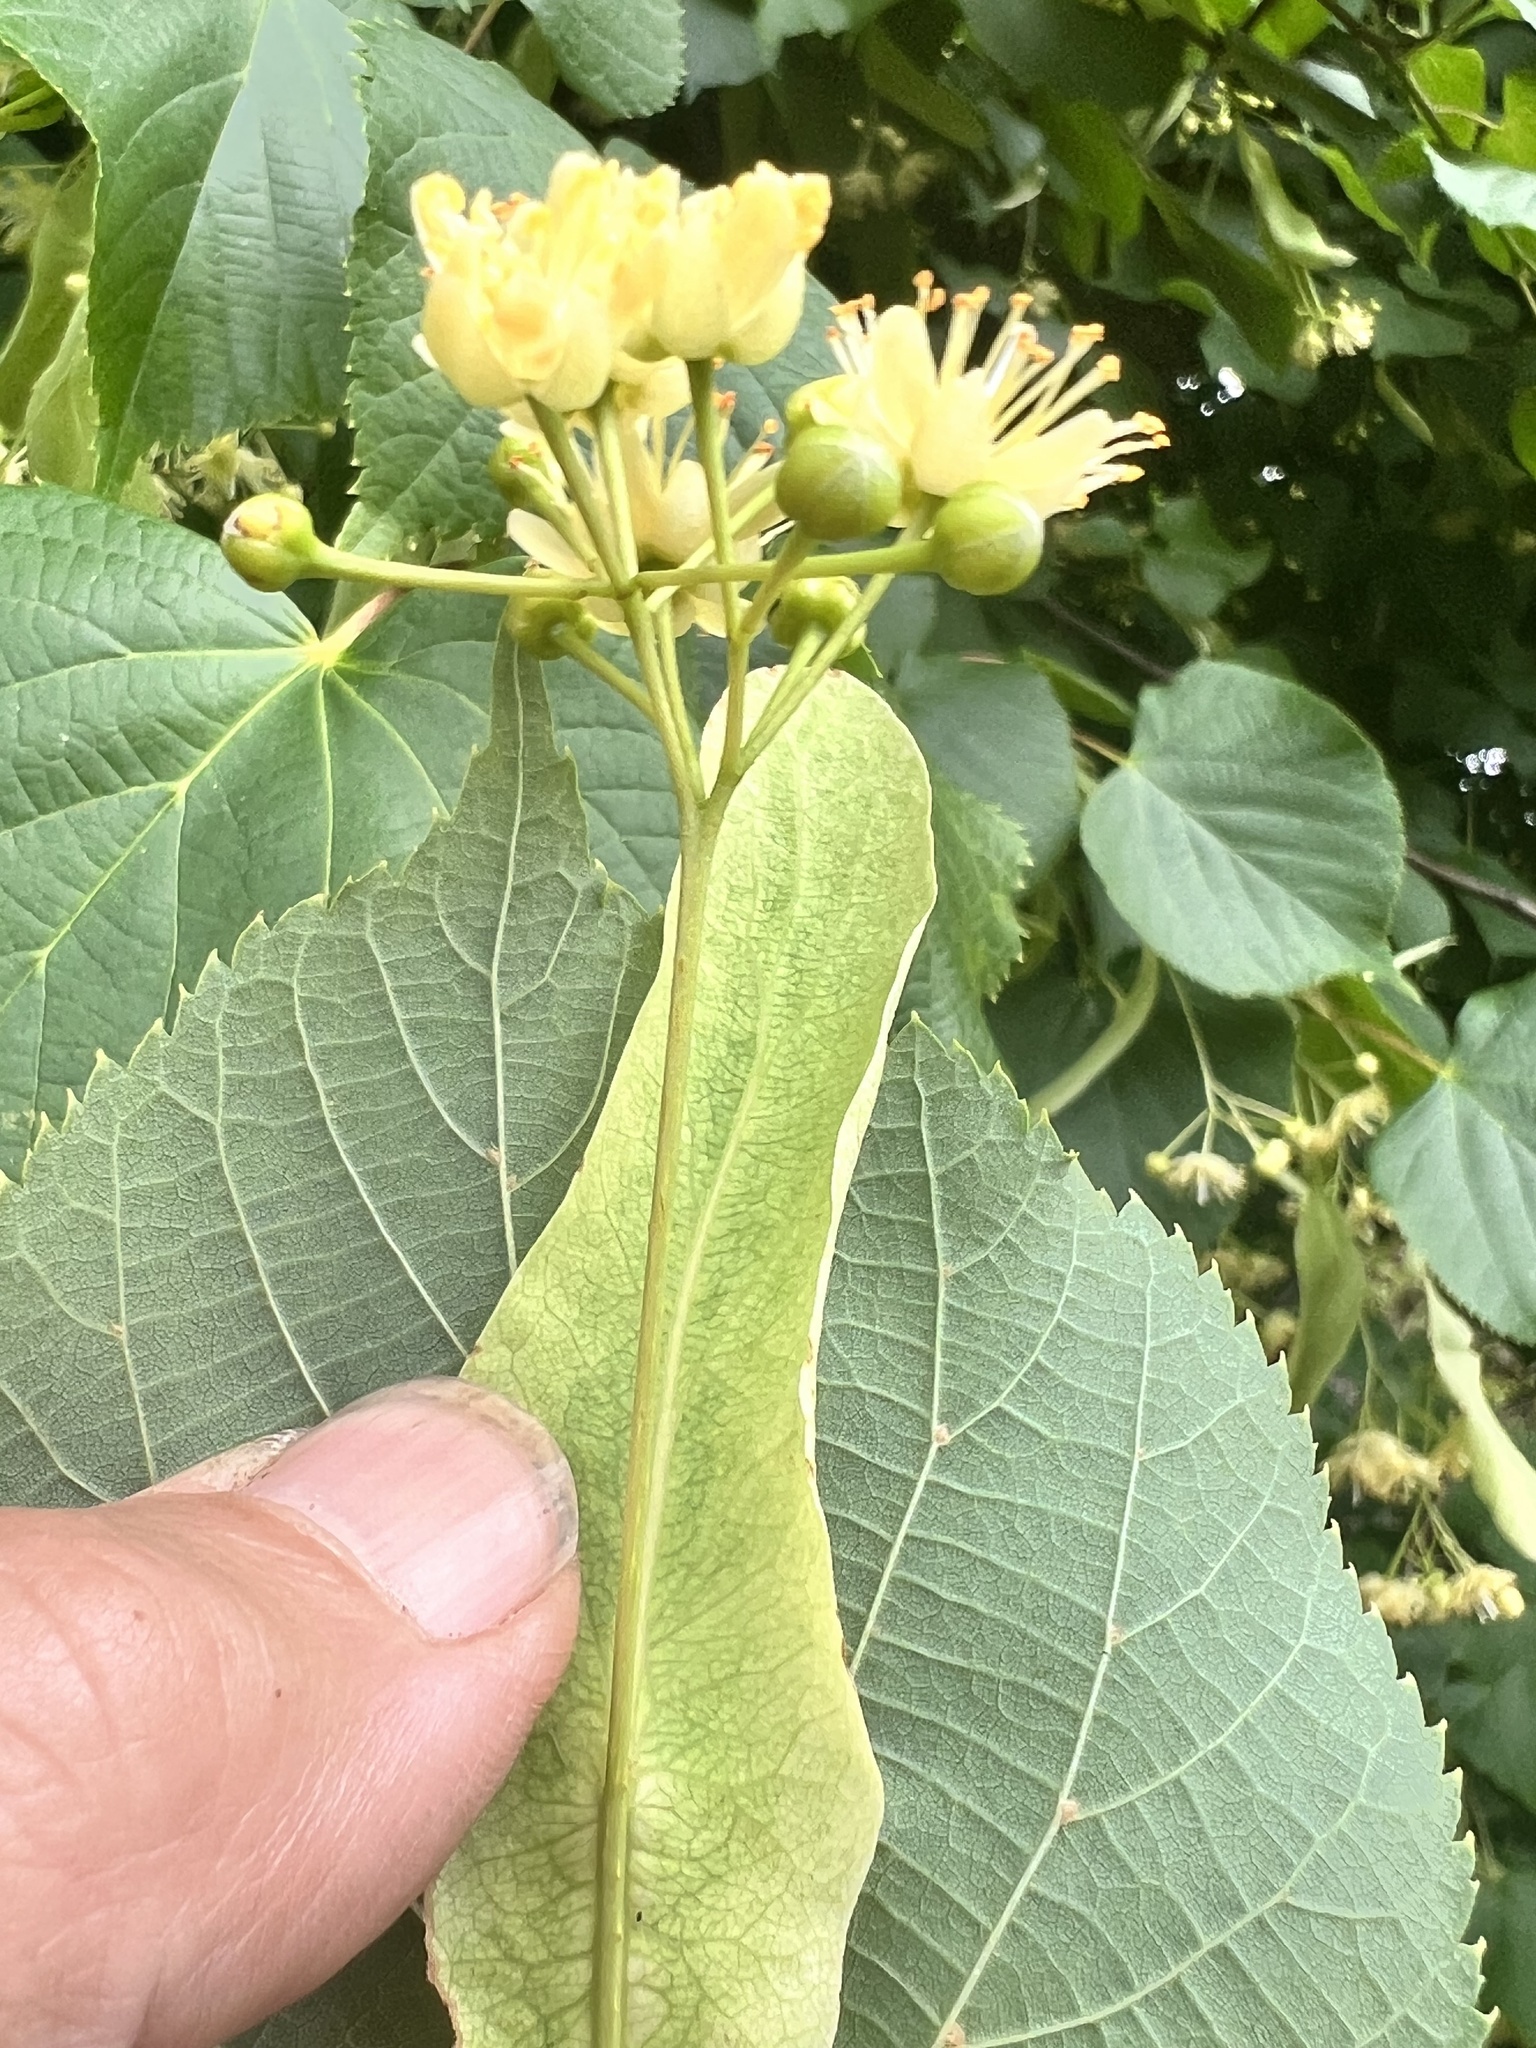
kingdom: Plantae
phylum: Tracheophyta
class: Magnoliopsida
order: Malvales
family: Malvaceae
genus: Tilia
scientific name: Tilia cordata
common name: Small-leaved lime
